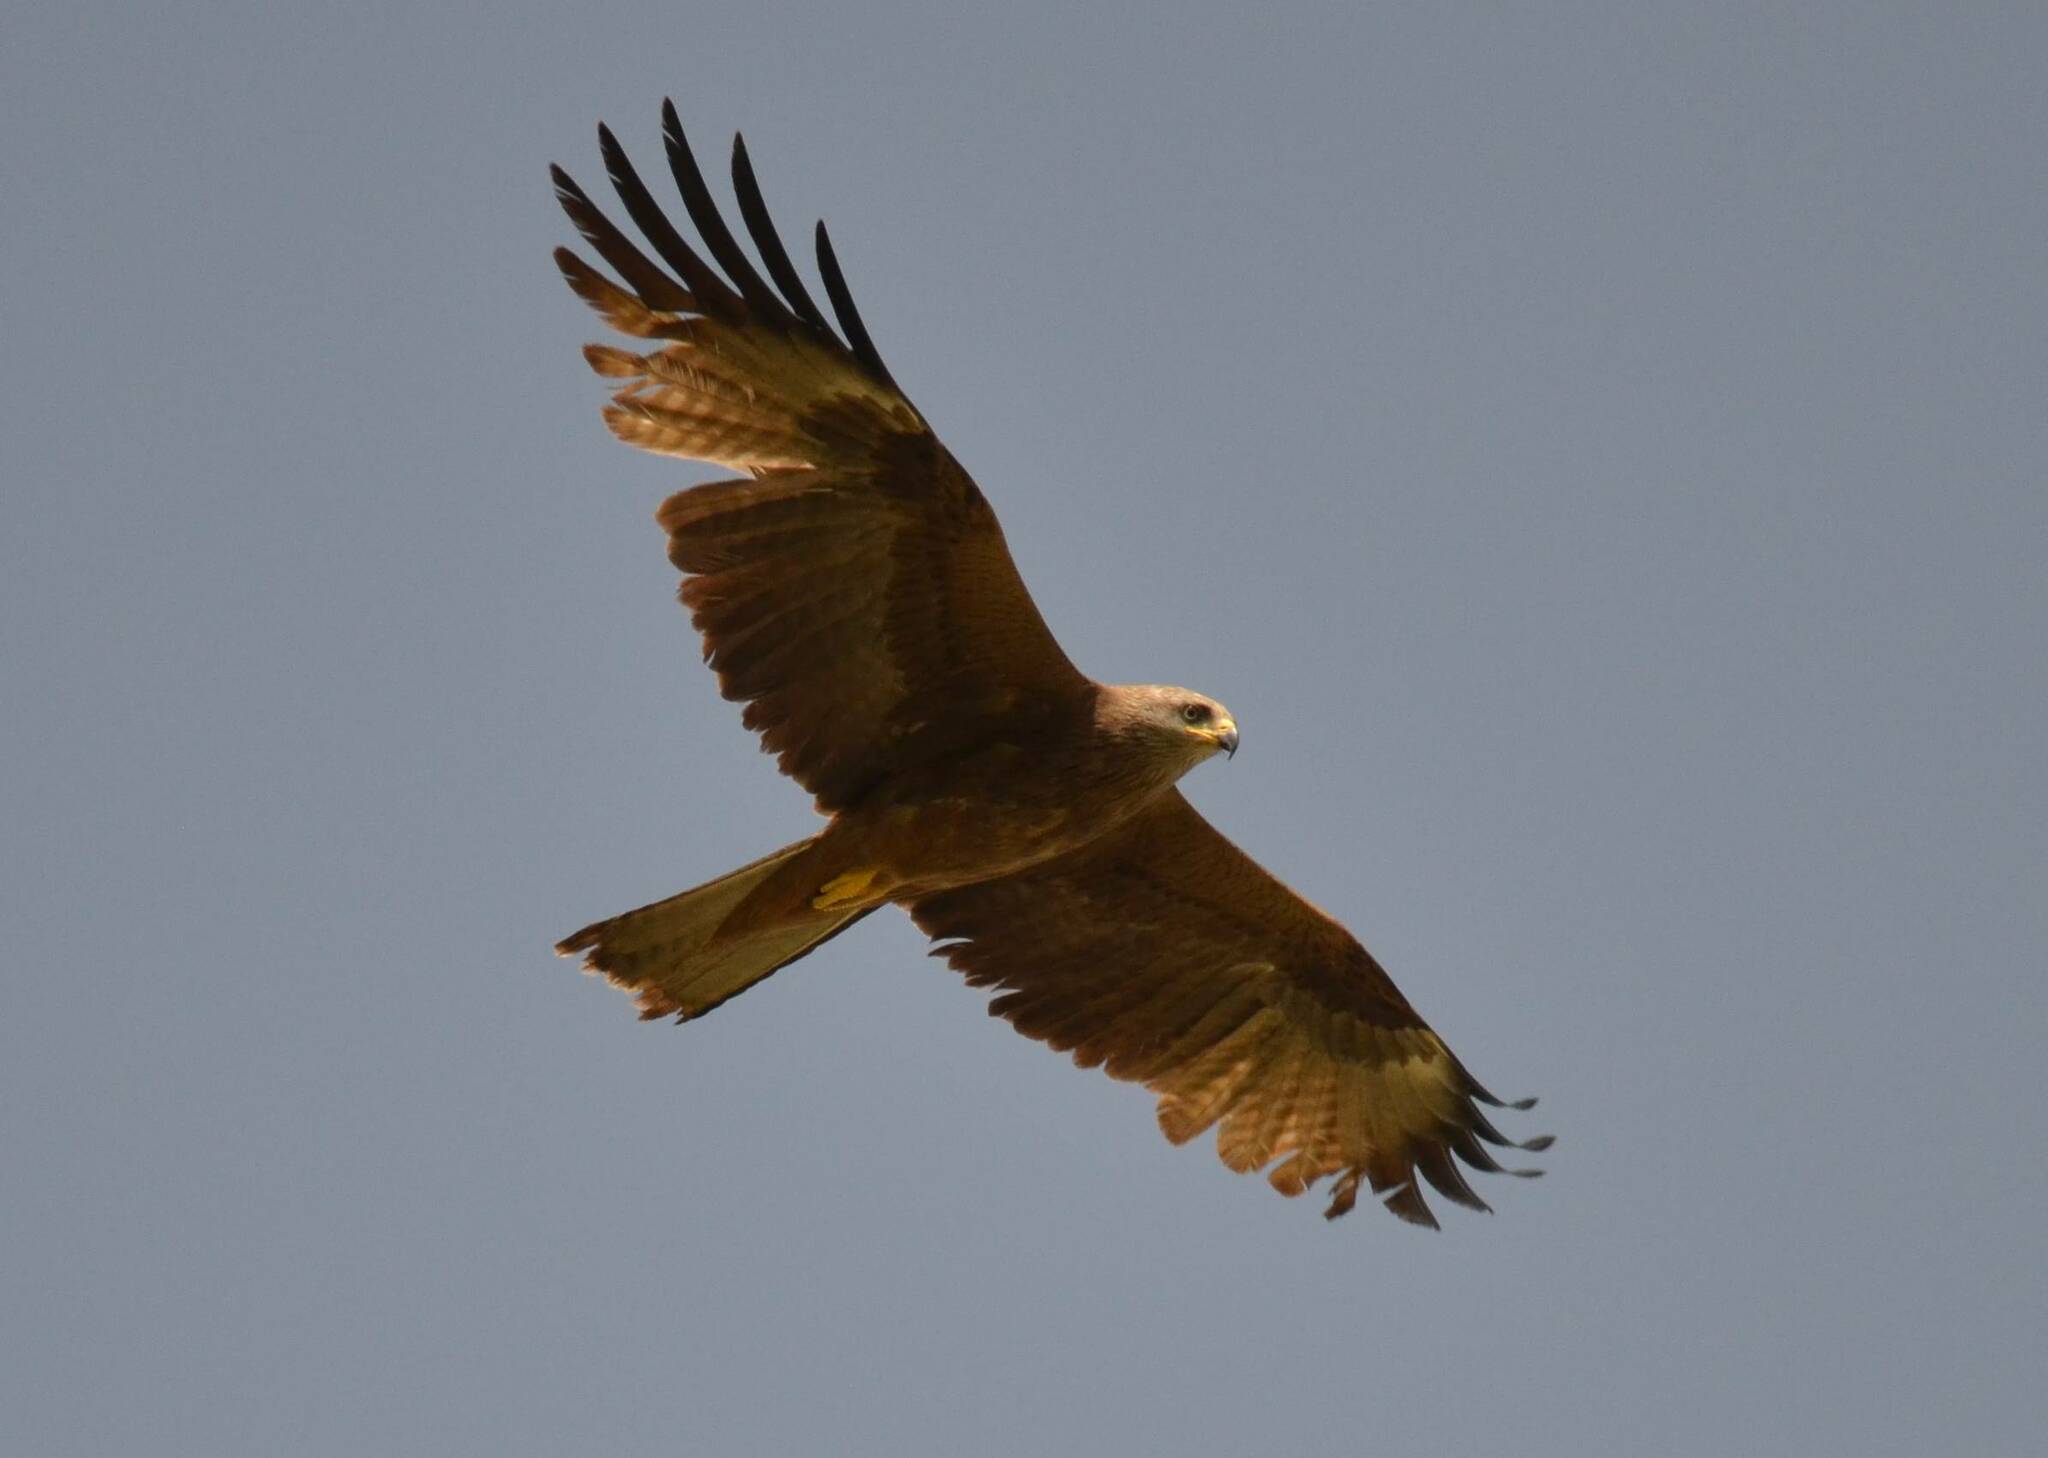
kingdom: Animalia
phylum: Chordata
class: Aves
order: Accipitriformes
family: Accipitridae
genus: Milvus
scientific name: Milvus migrans
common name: Black kite
